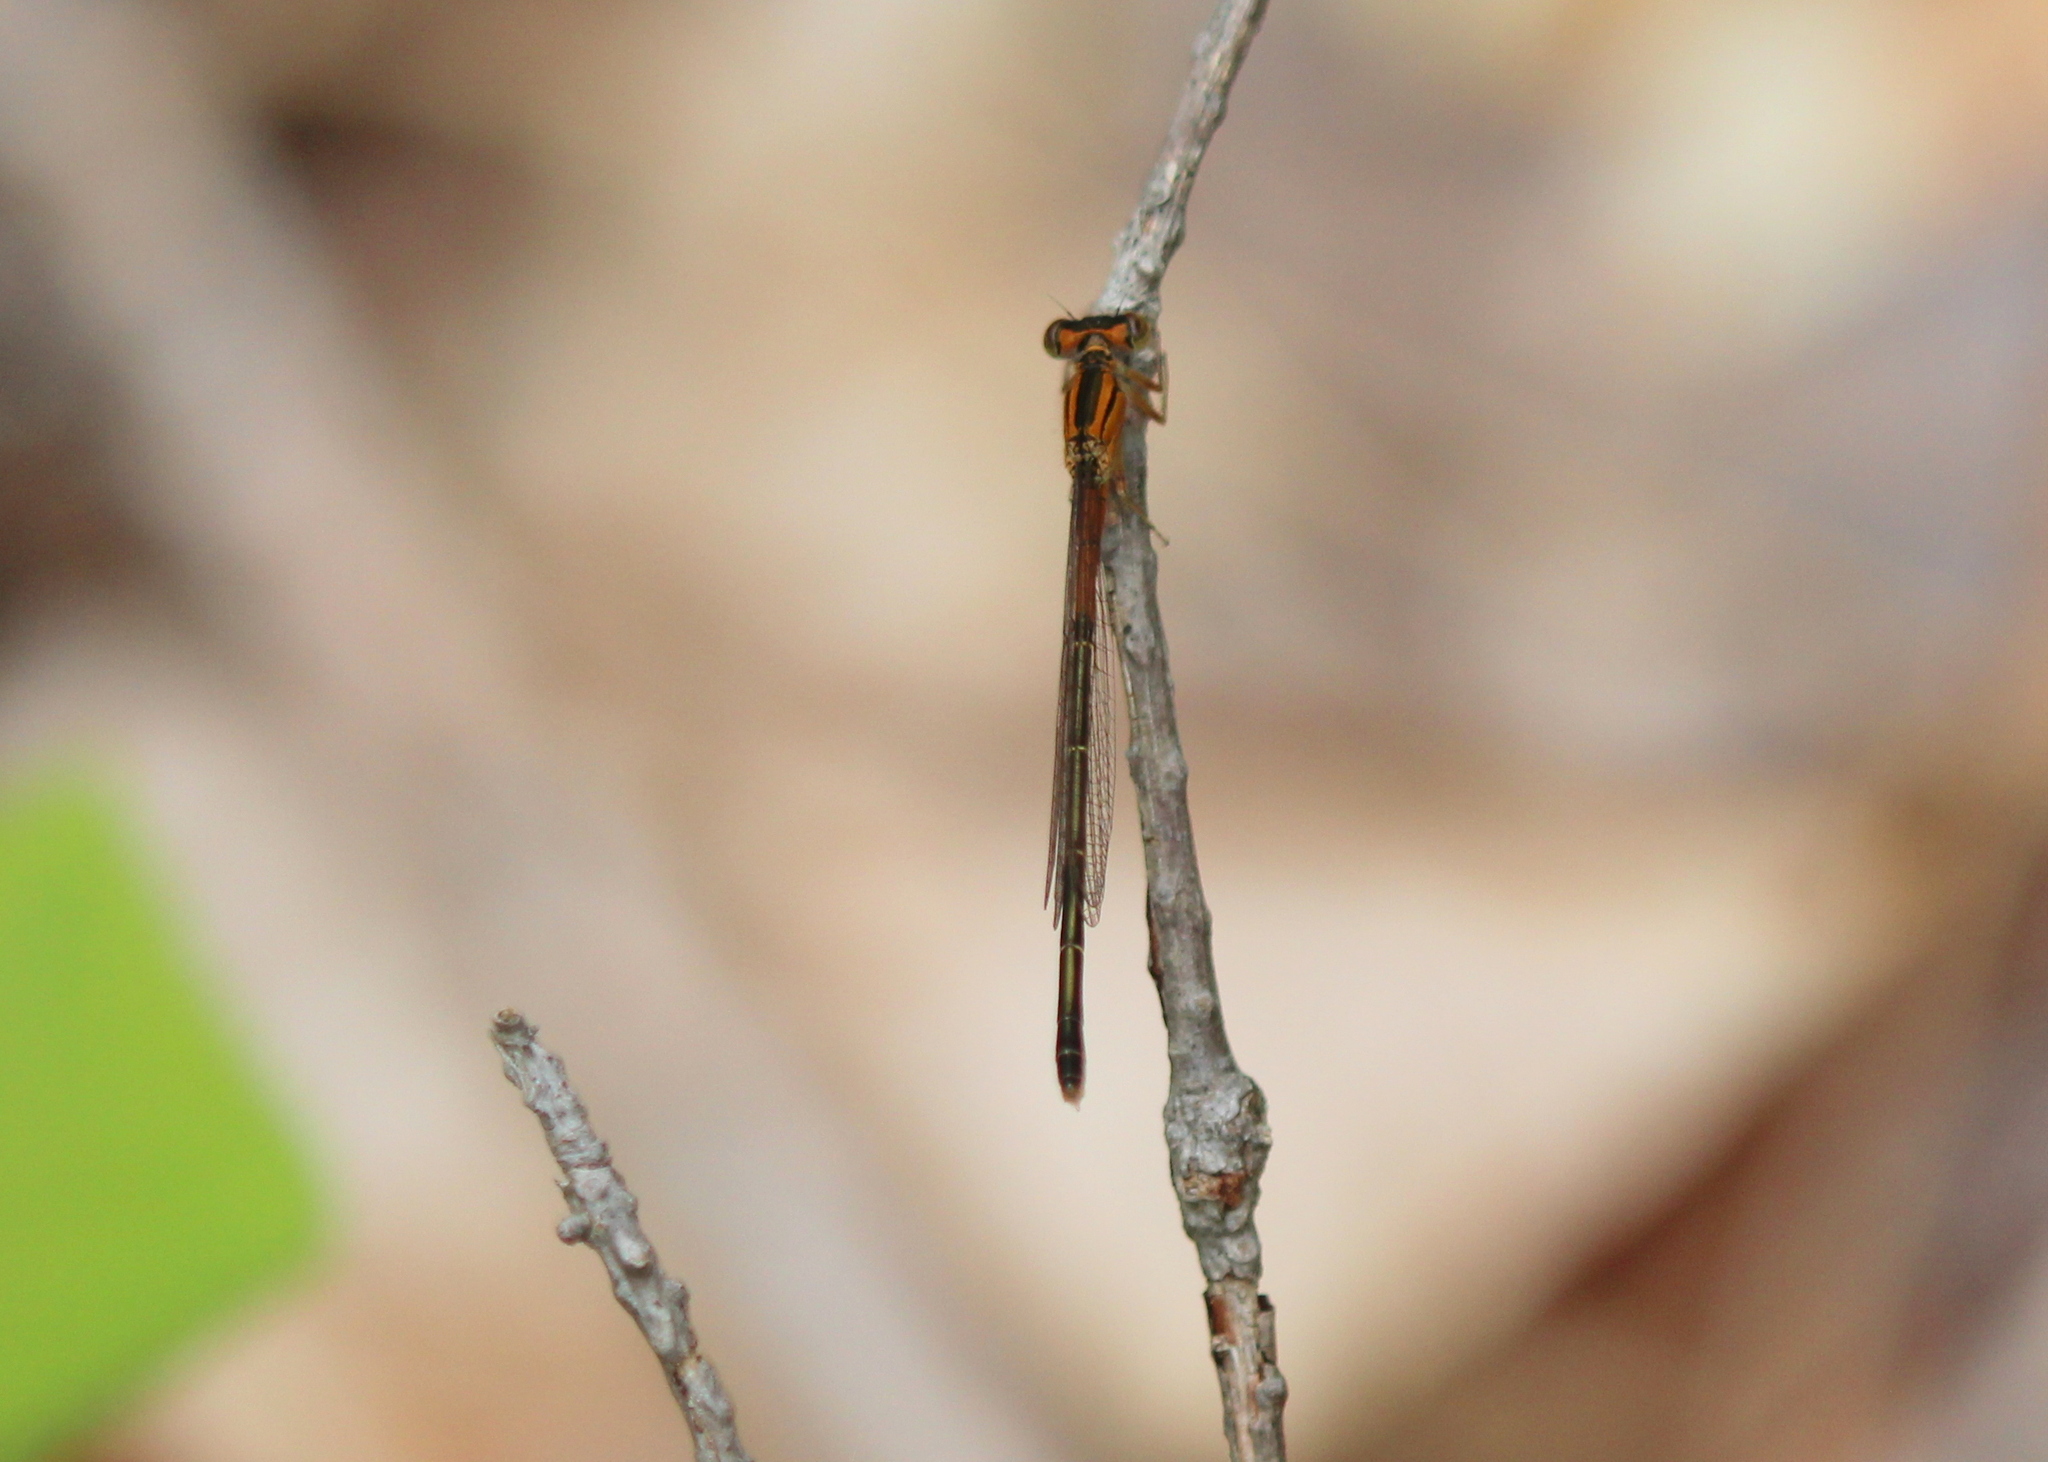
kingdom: Animalia
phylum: Arthropoda
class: Insecta
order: Odonata
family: Coenagrionidae
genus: Ischnura
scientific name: Ischnura verticalis
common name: Eastern forktail
